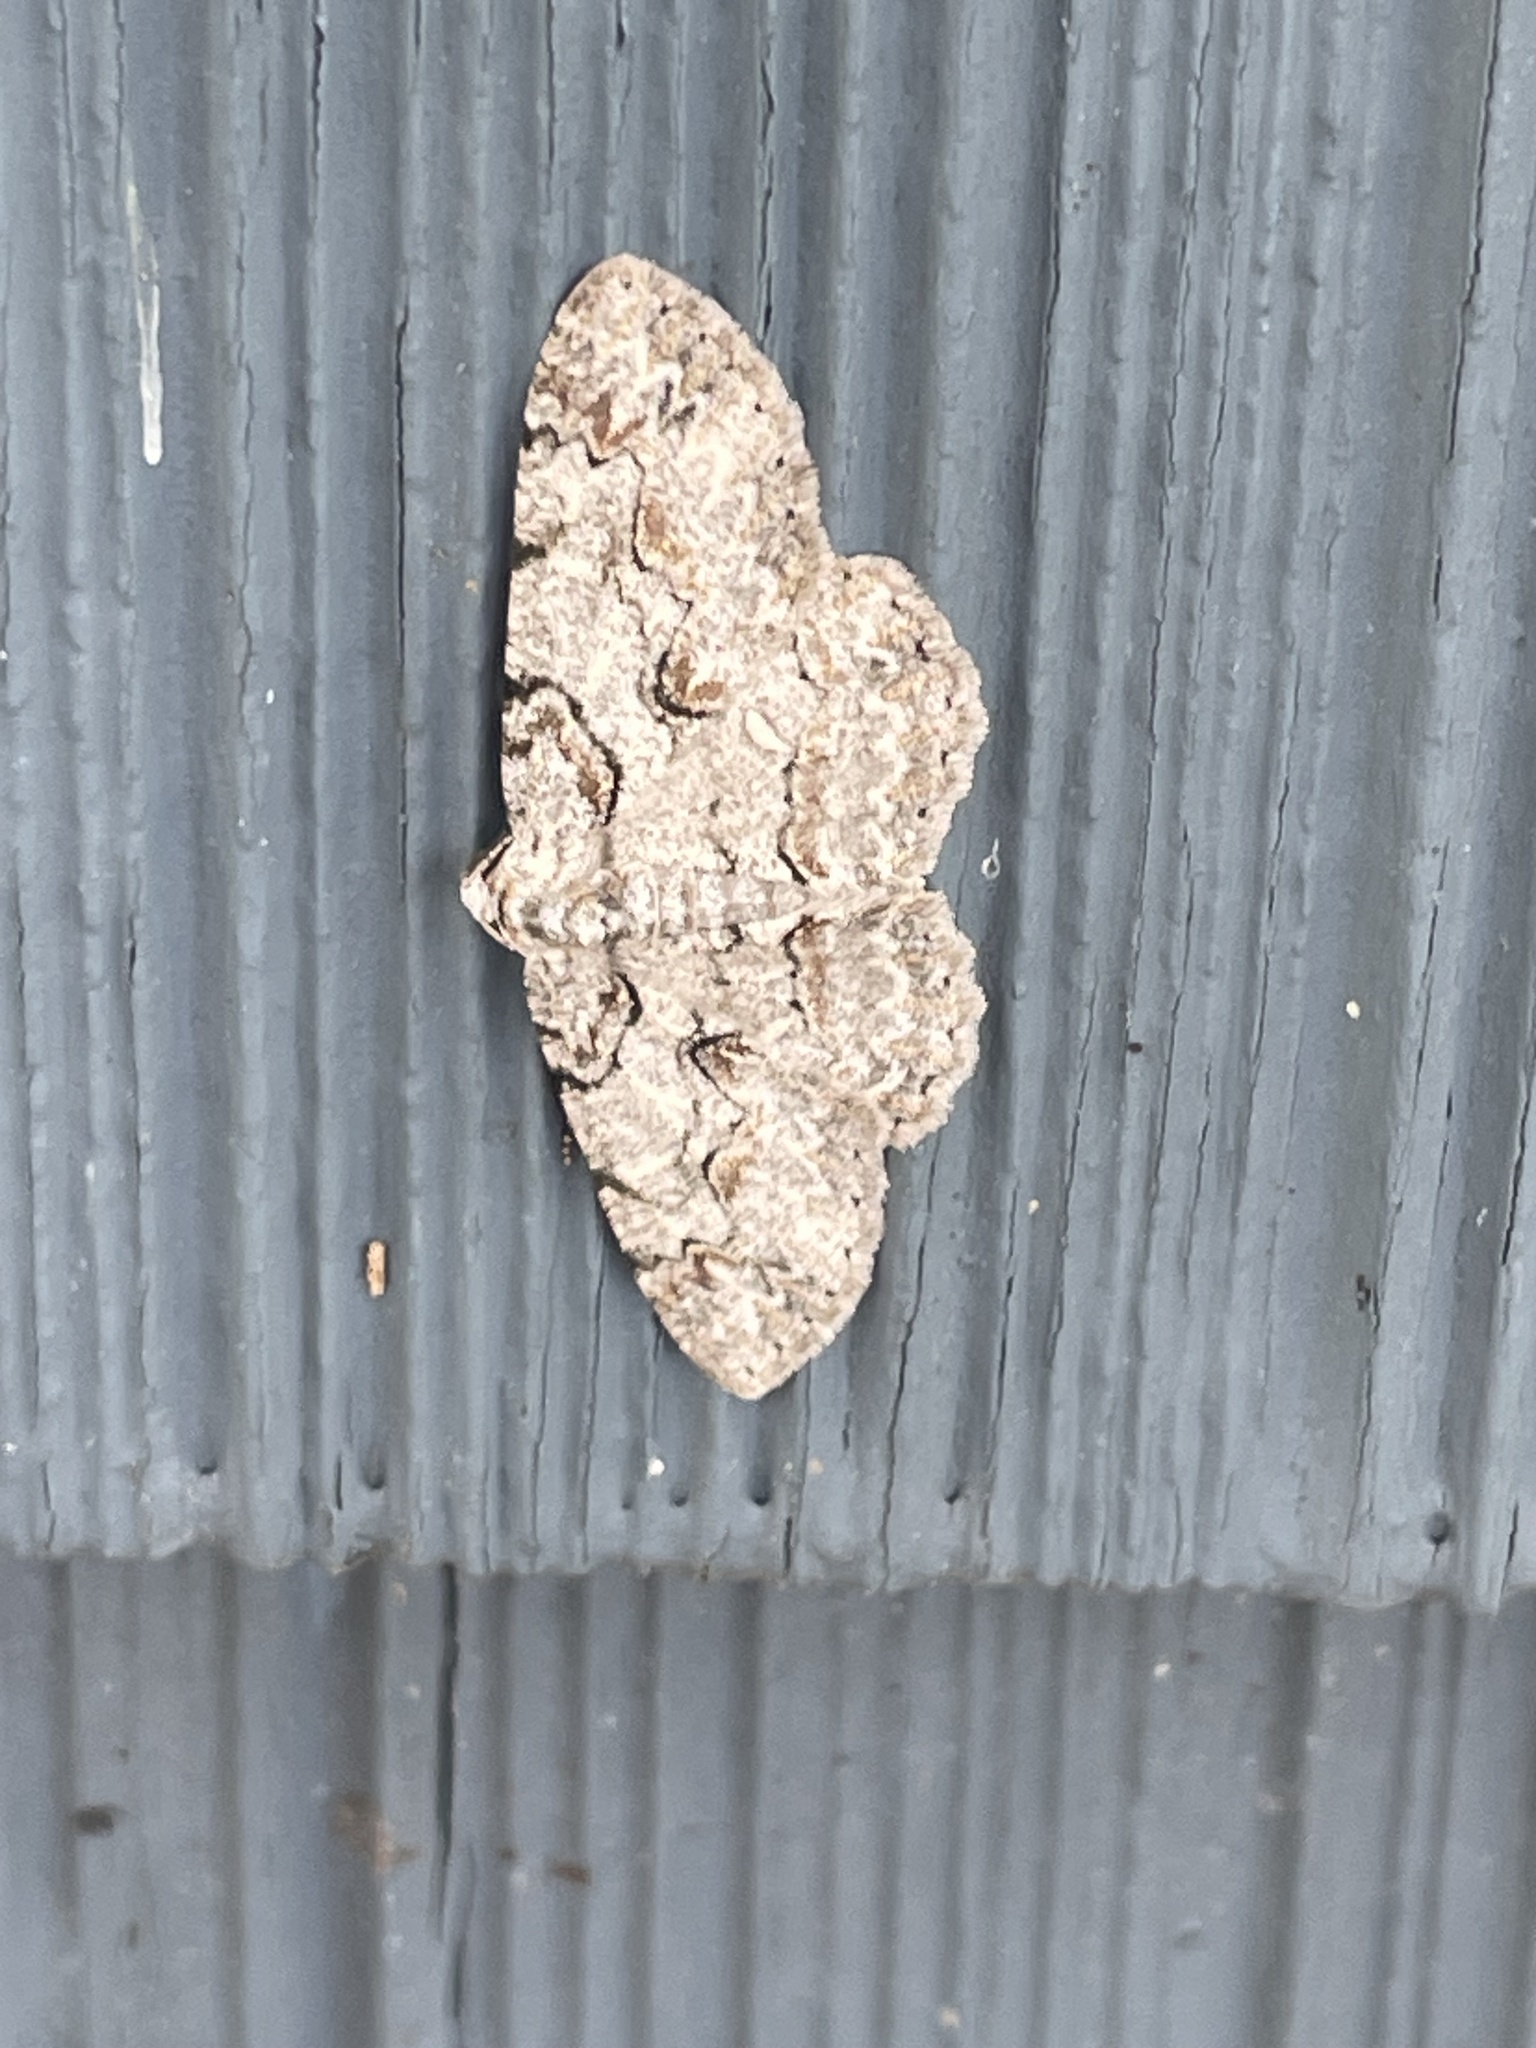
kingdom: Animalia
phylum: Arthropoda
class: Insecta
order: Lepidoptera
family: Geometridae
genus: Iridopsis
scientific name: Iridopsis defectaria
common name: Brown-shaded gray
